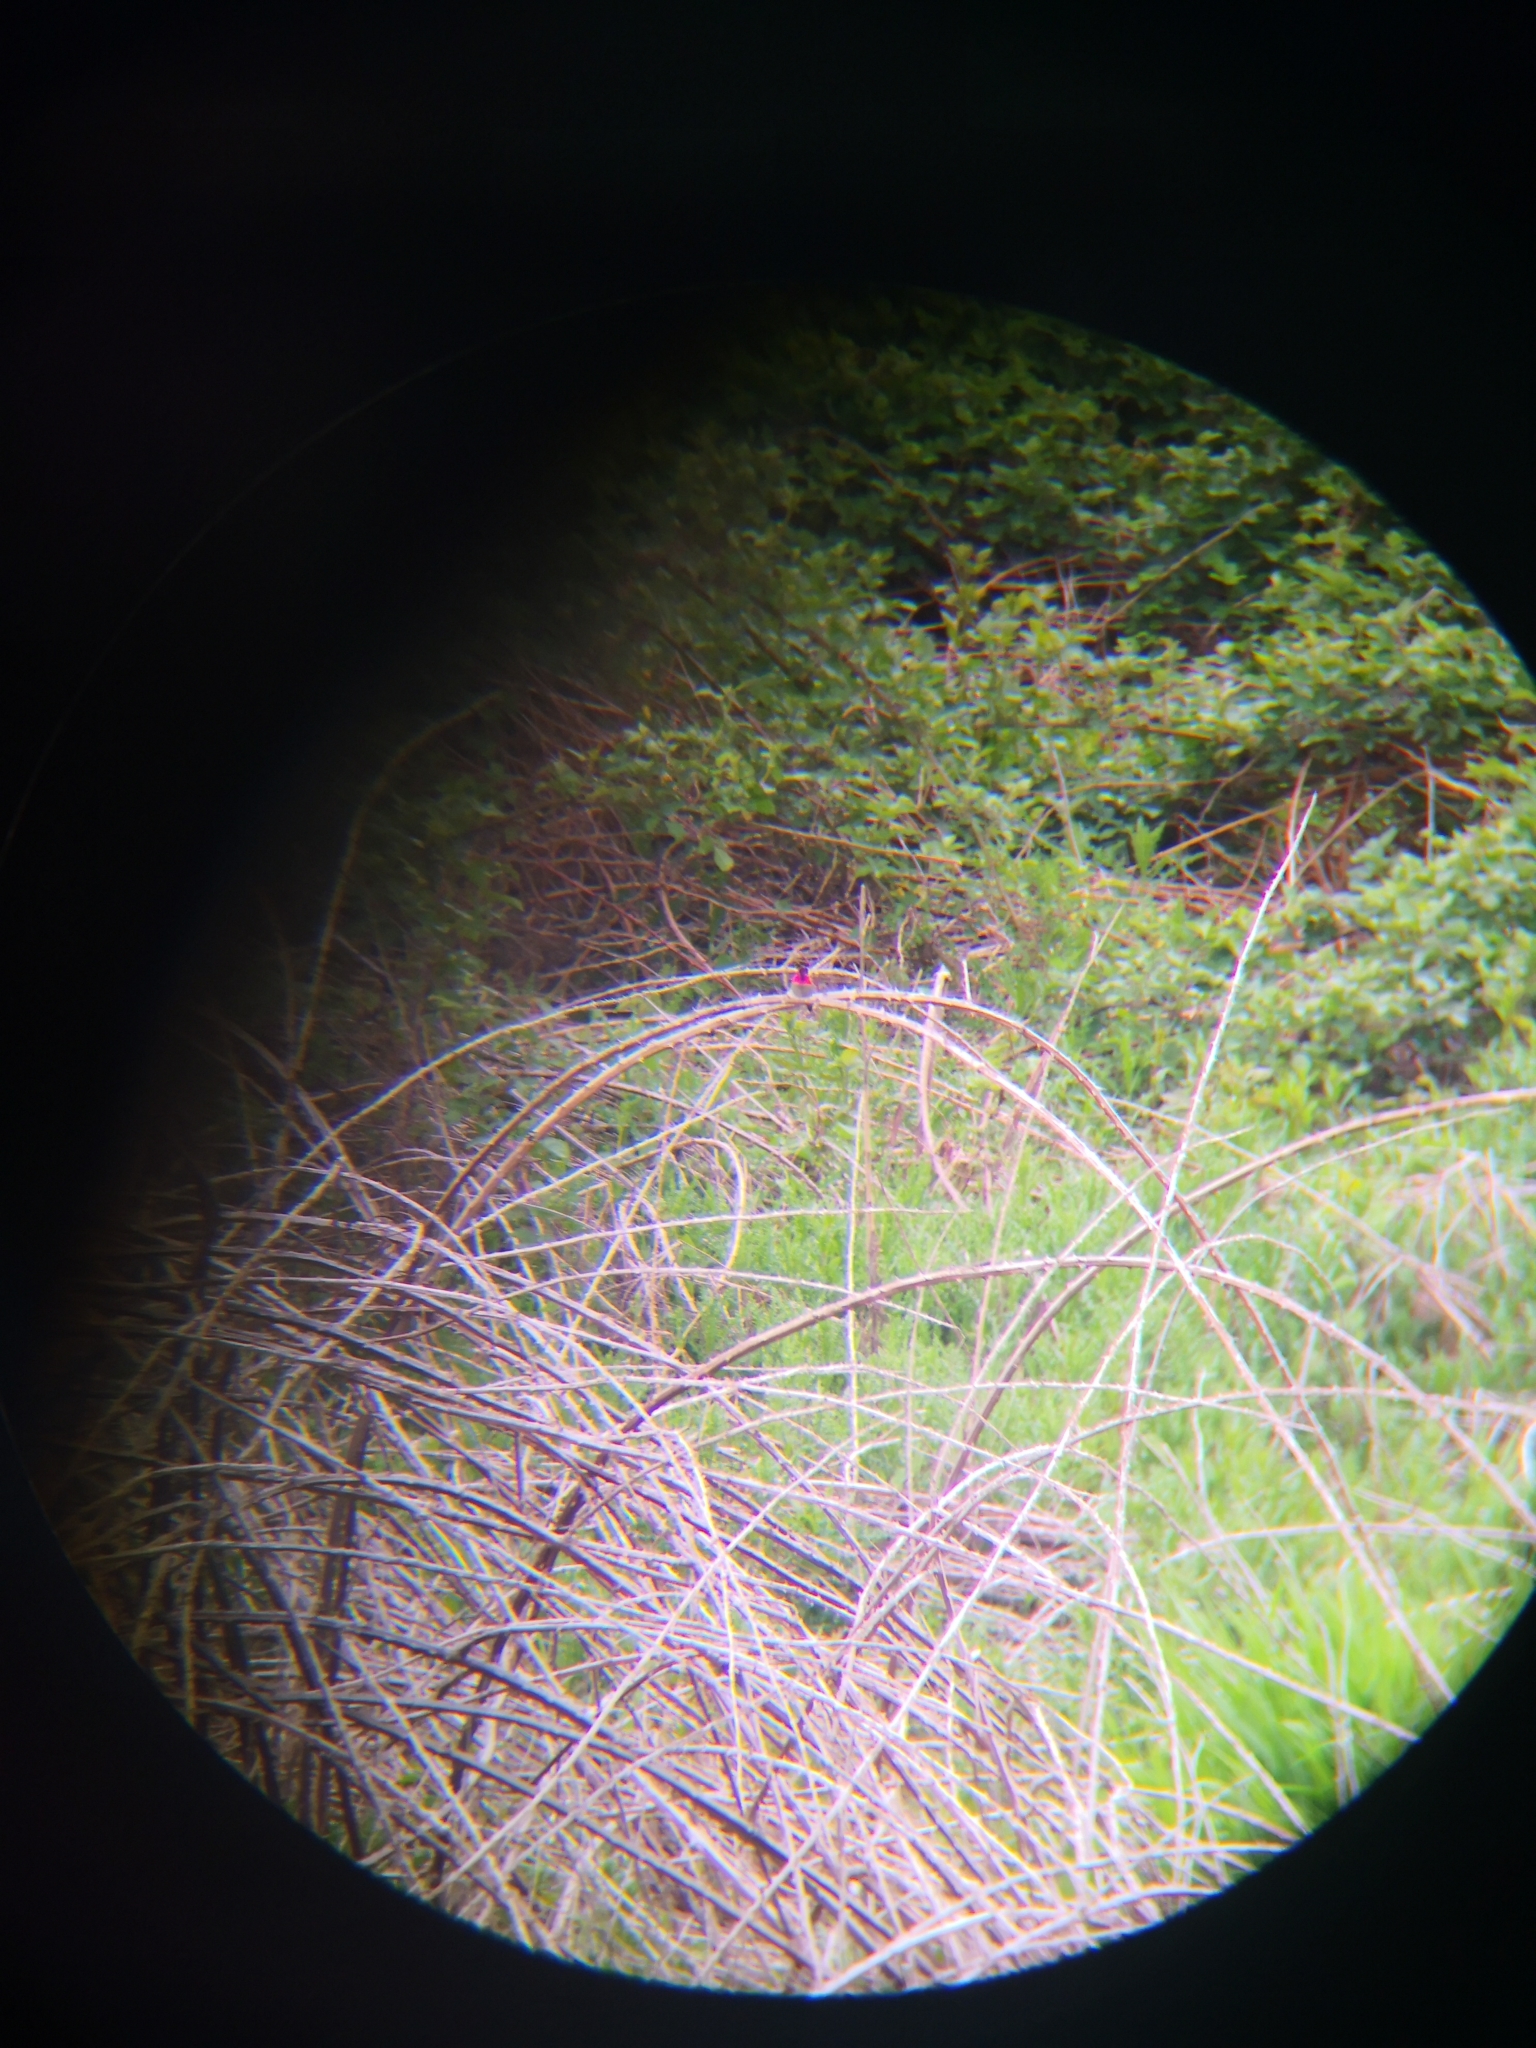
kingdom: Animalia
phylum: Chordata
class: Aves
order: Apodiformes
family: Trochilidae
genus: Calypte
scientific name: Calypte anna
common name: Anna's hummingbird
